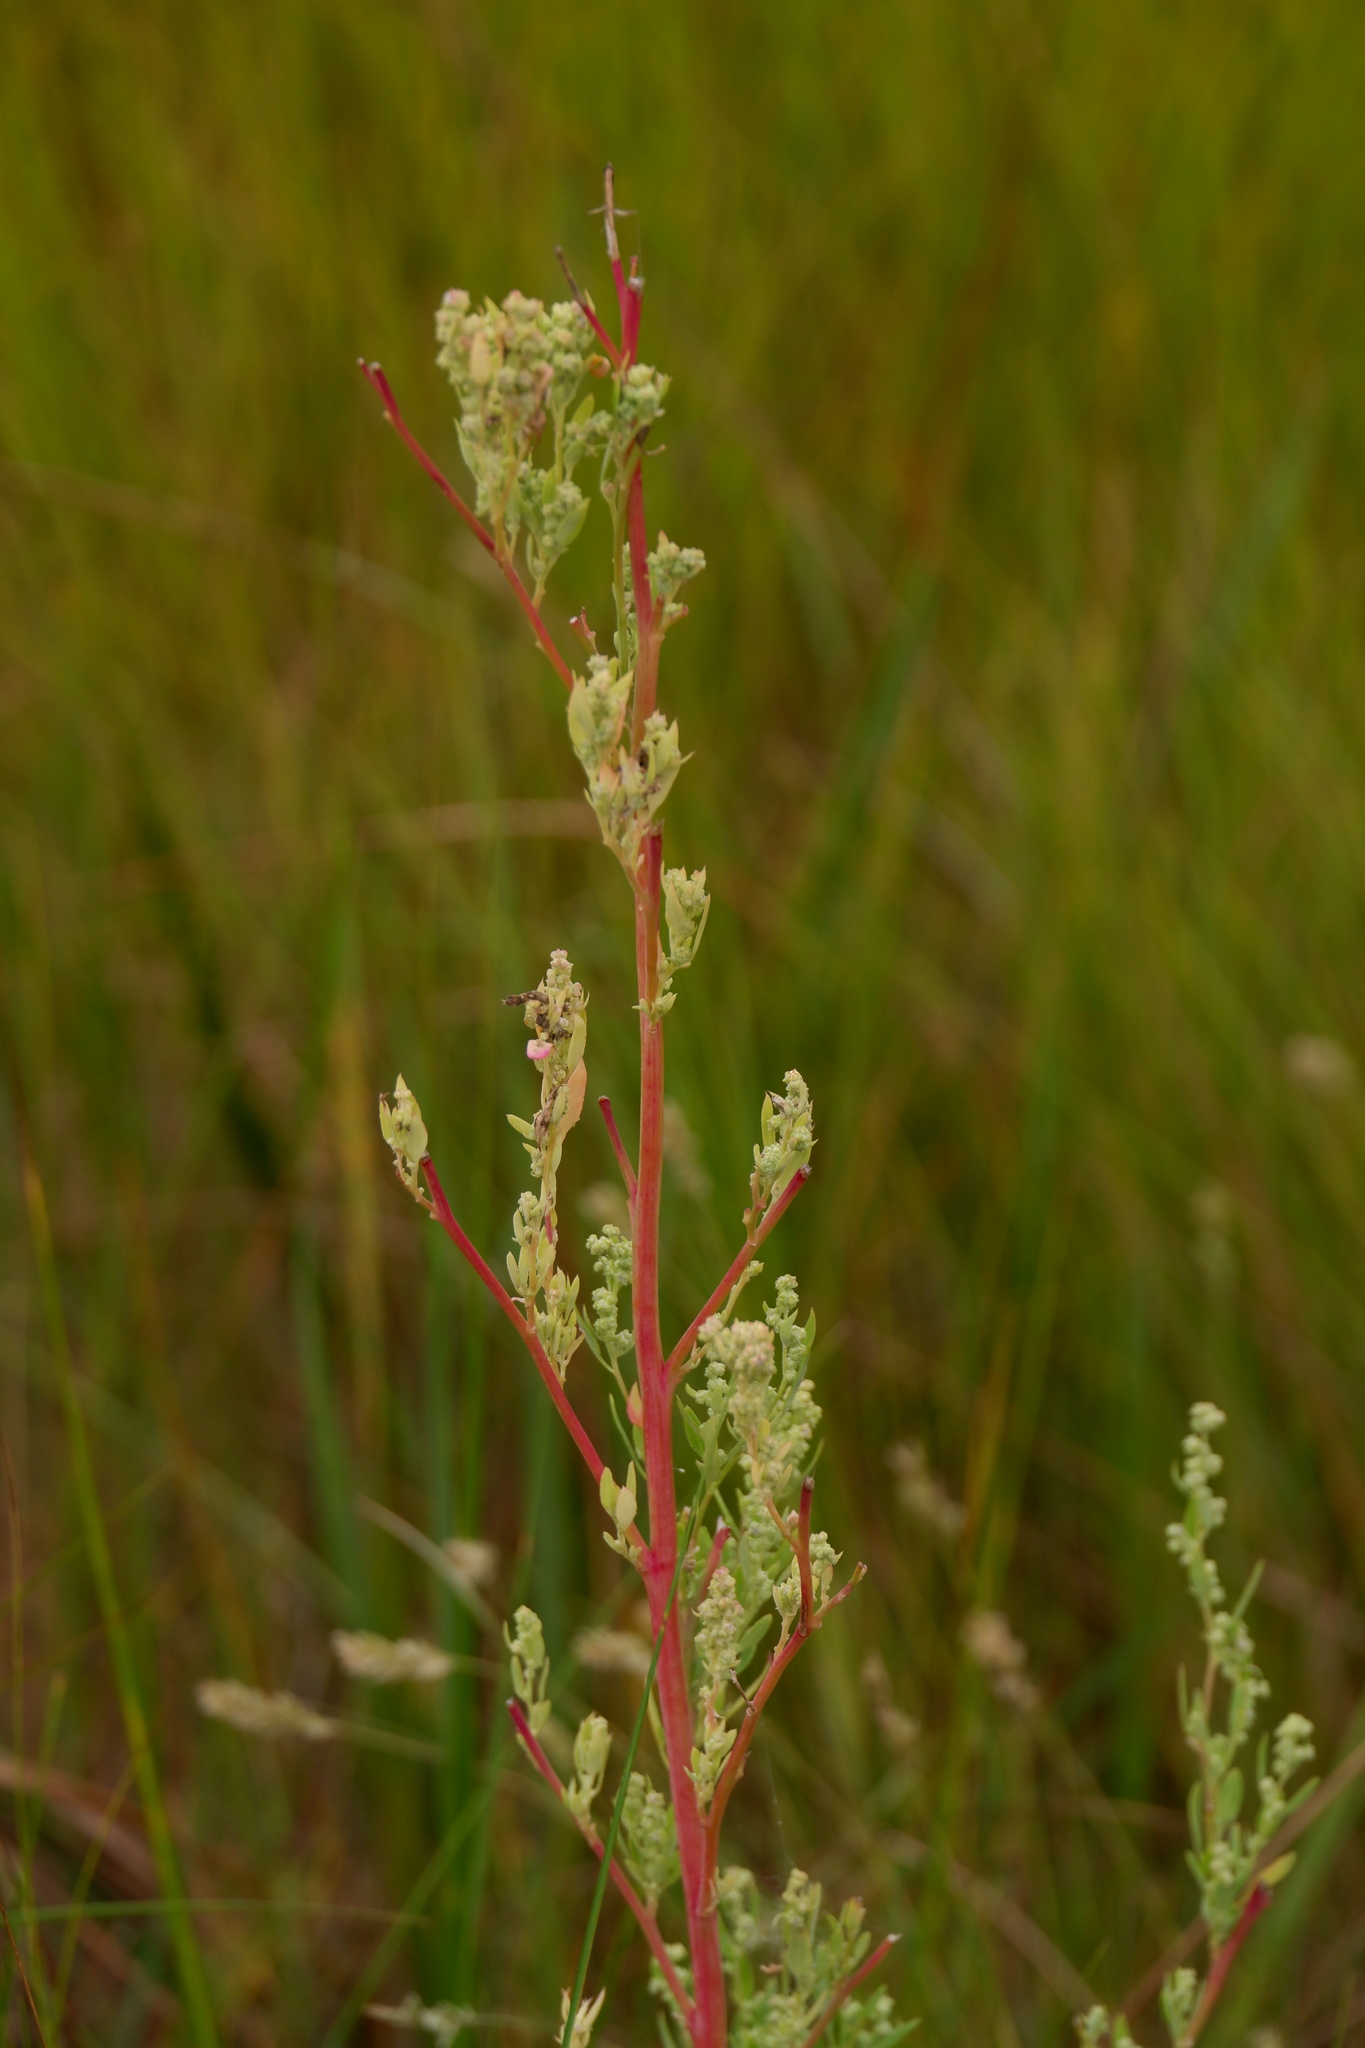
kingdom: Plantae
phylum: Tracheophyta
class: Magnoliopsida
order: Caryophyllales
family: Amaranthaceae
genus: Chenopodium
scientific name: Chenopodium berlandieri
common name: Pit-seed goosefoot
